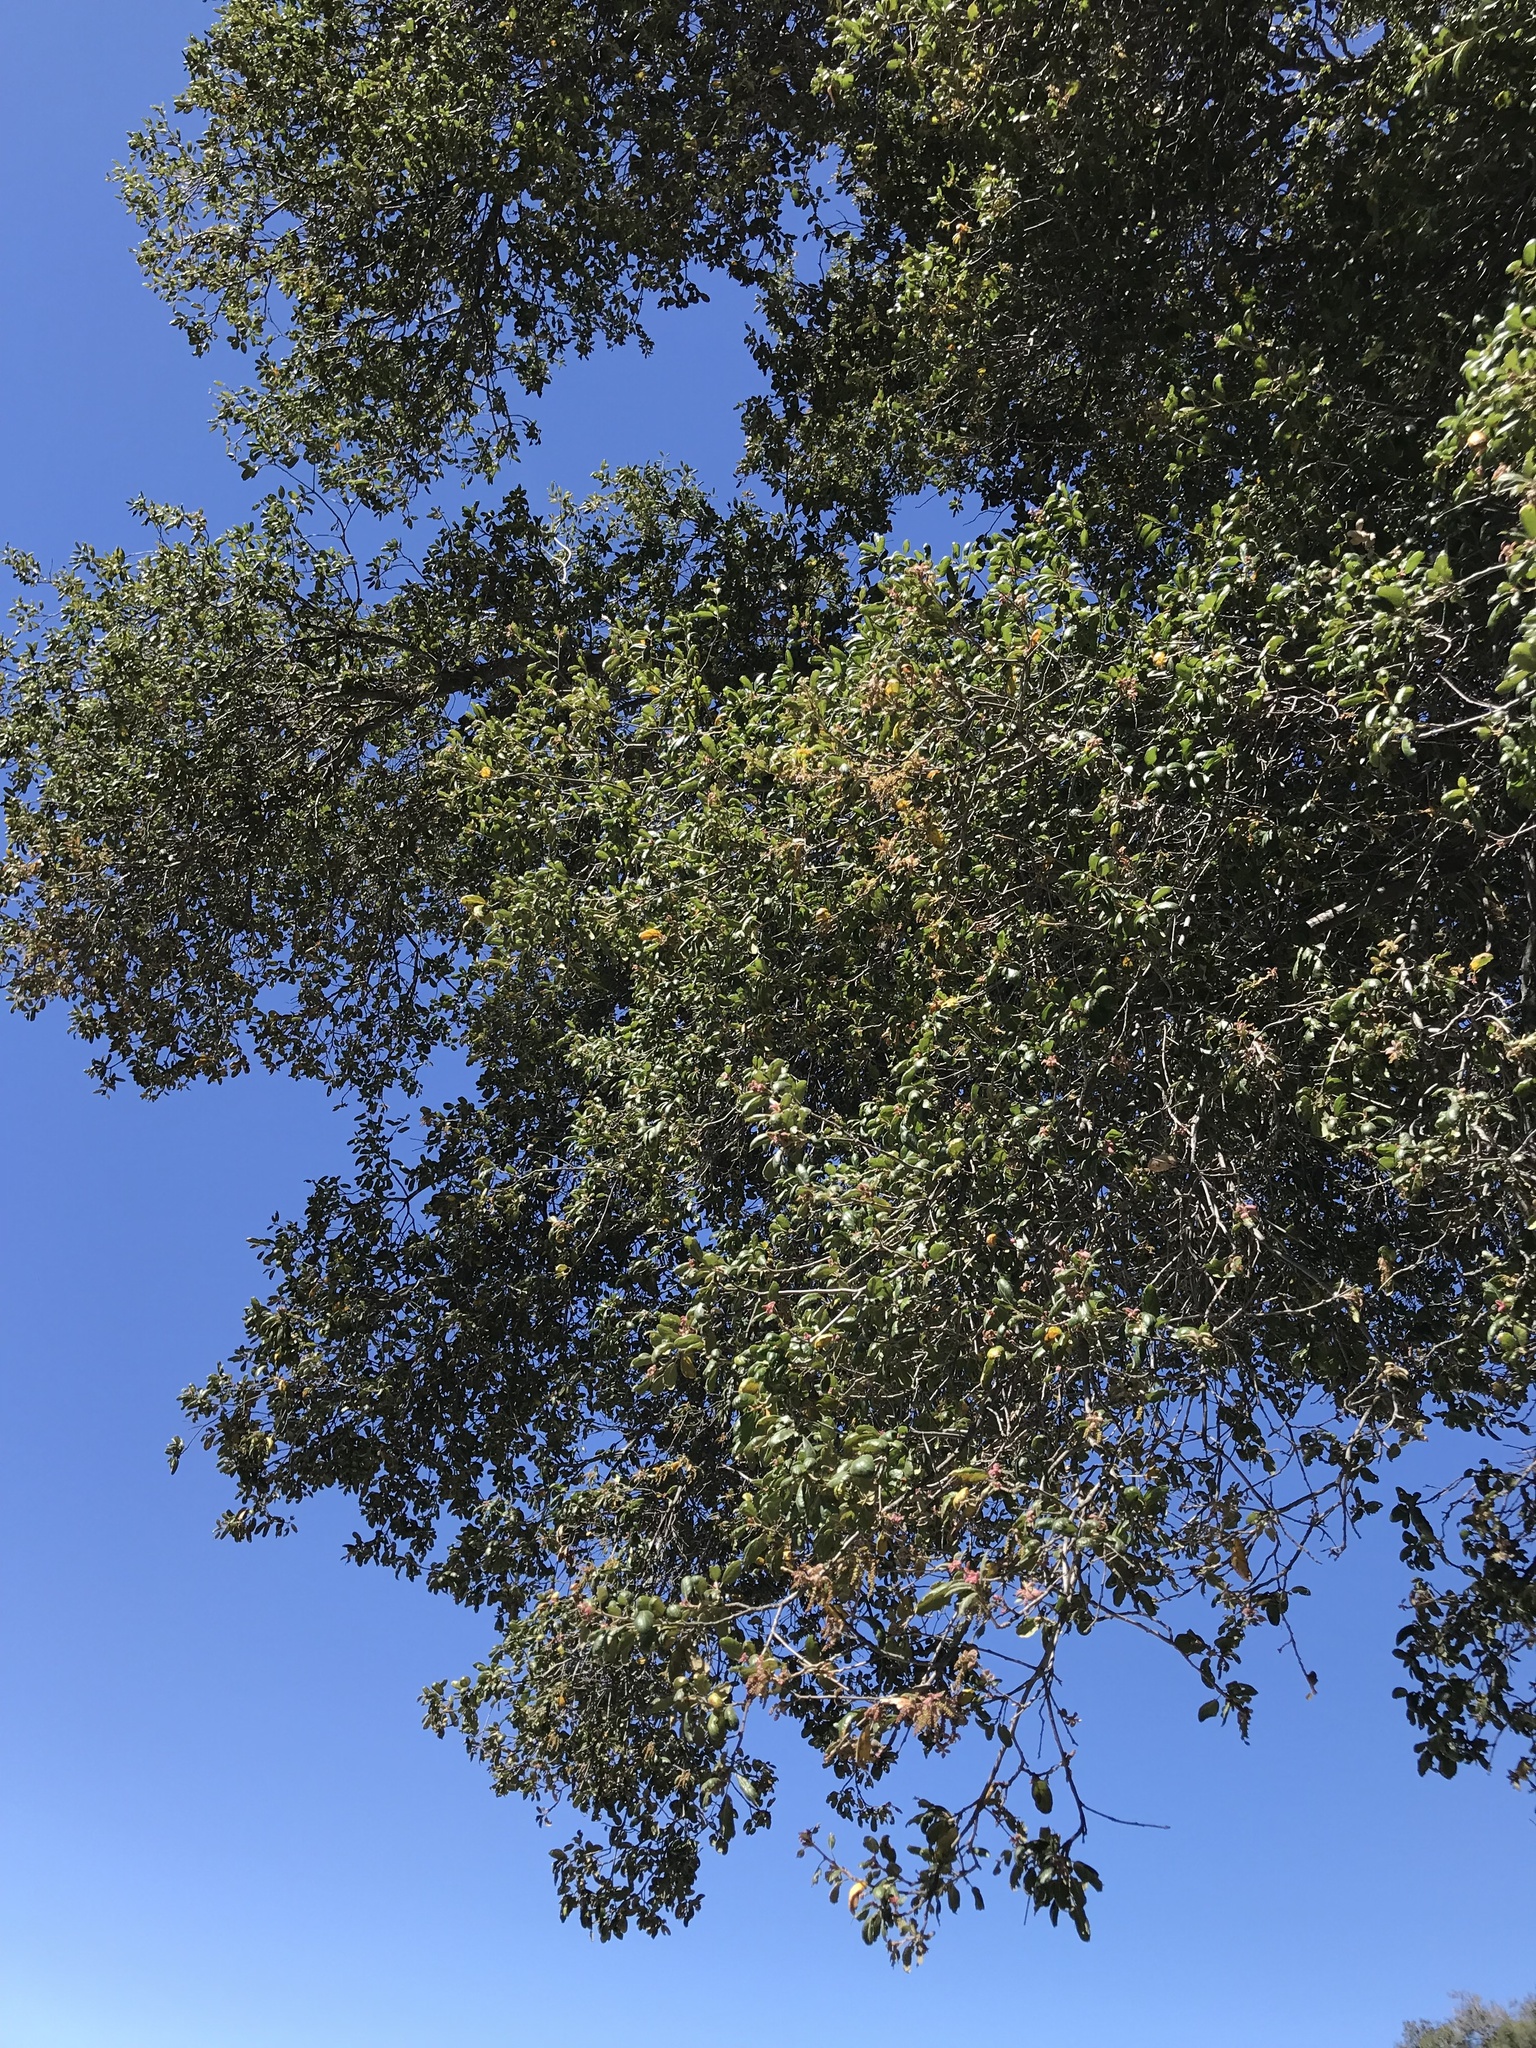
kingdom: Plantae
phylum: Tracheophyta
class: Magnoliopsida
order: Fagales
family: Fagaceae
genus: Quercus
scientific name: Quercus agrifolia
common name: California live oak
